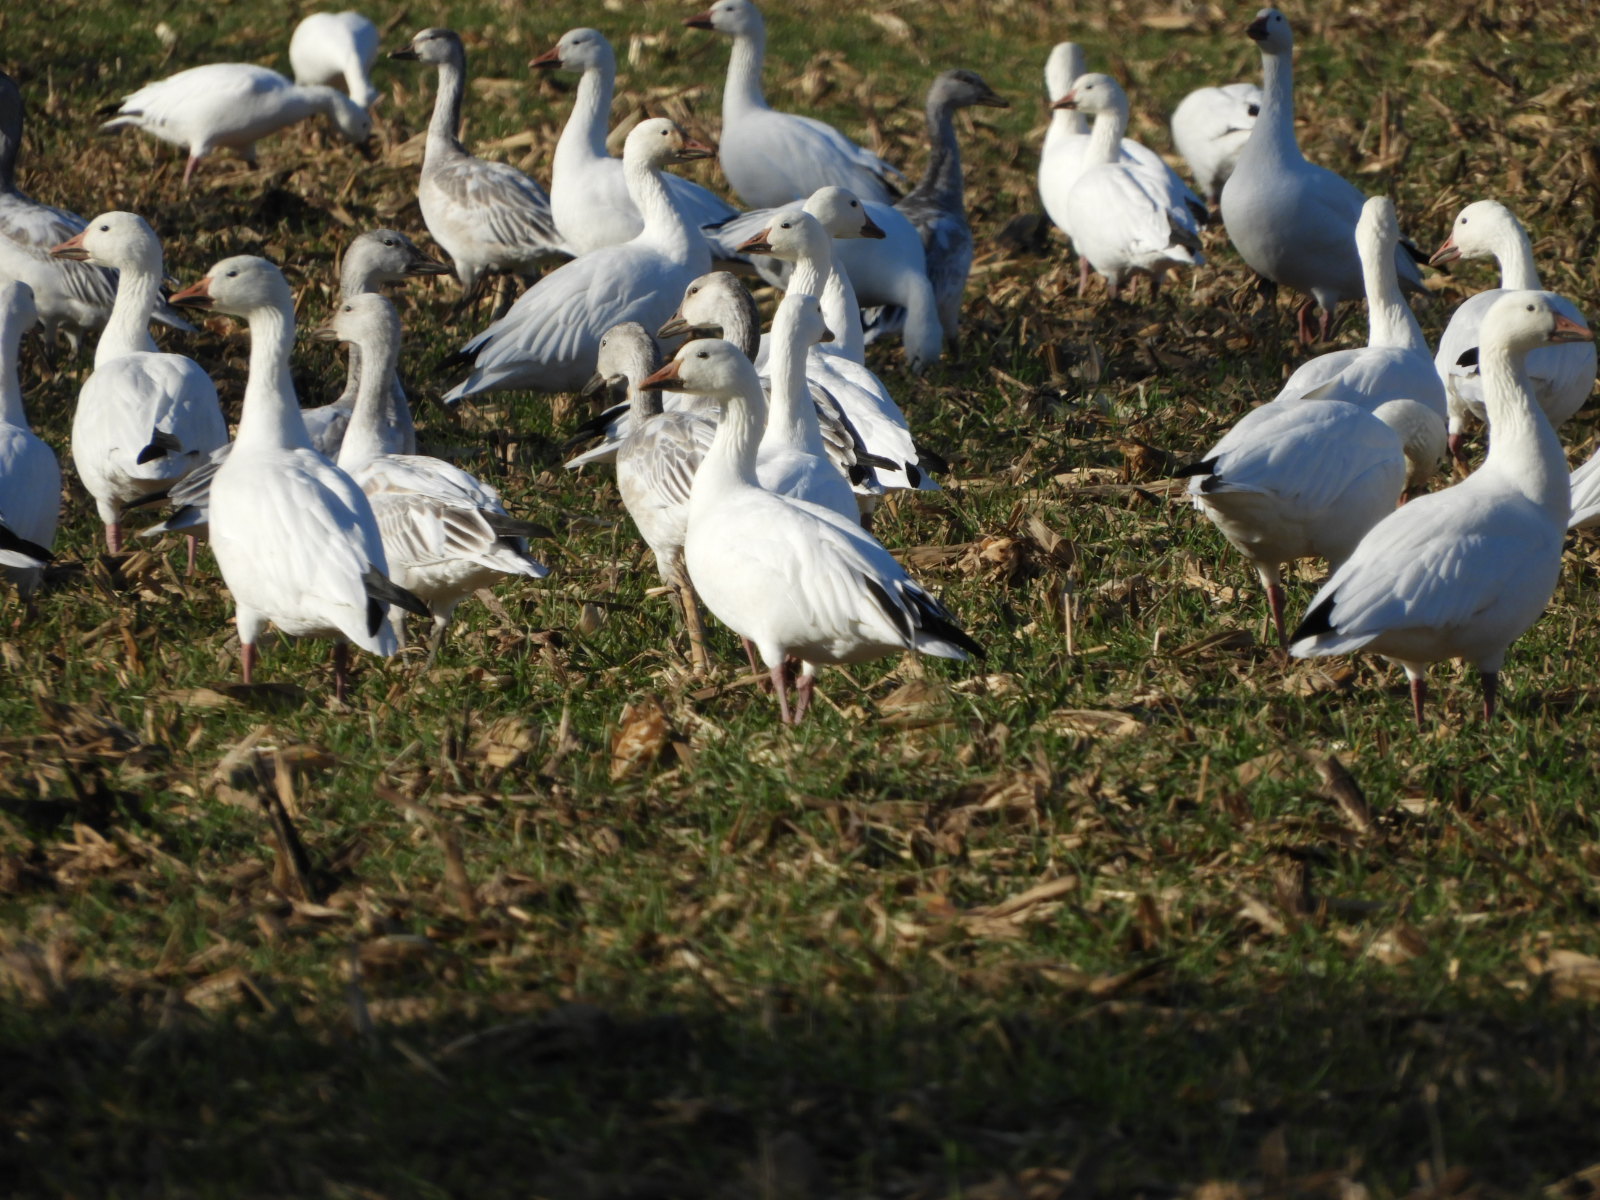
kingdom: Animalia
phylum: Chordata
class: Aves
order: Anseriformes
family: Anatidae
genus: Anser
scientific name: Anser caerulescens
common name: Snow goose
